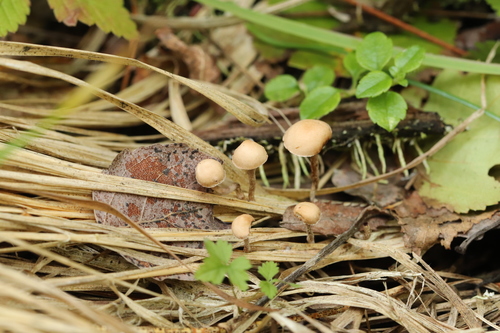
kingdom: Fungi
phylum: Basidiomycota
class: Agaricomycetes
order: Agaricales
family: Strophariaceae
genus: Deconica
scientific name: Deconica inquilina
